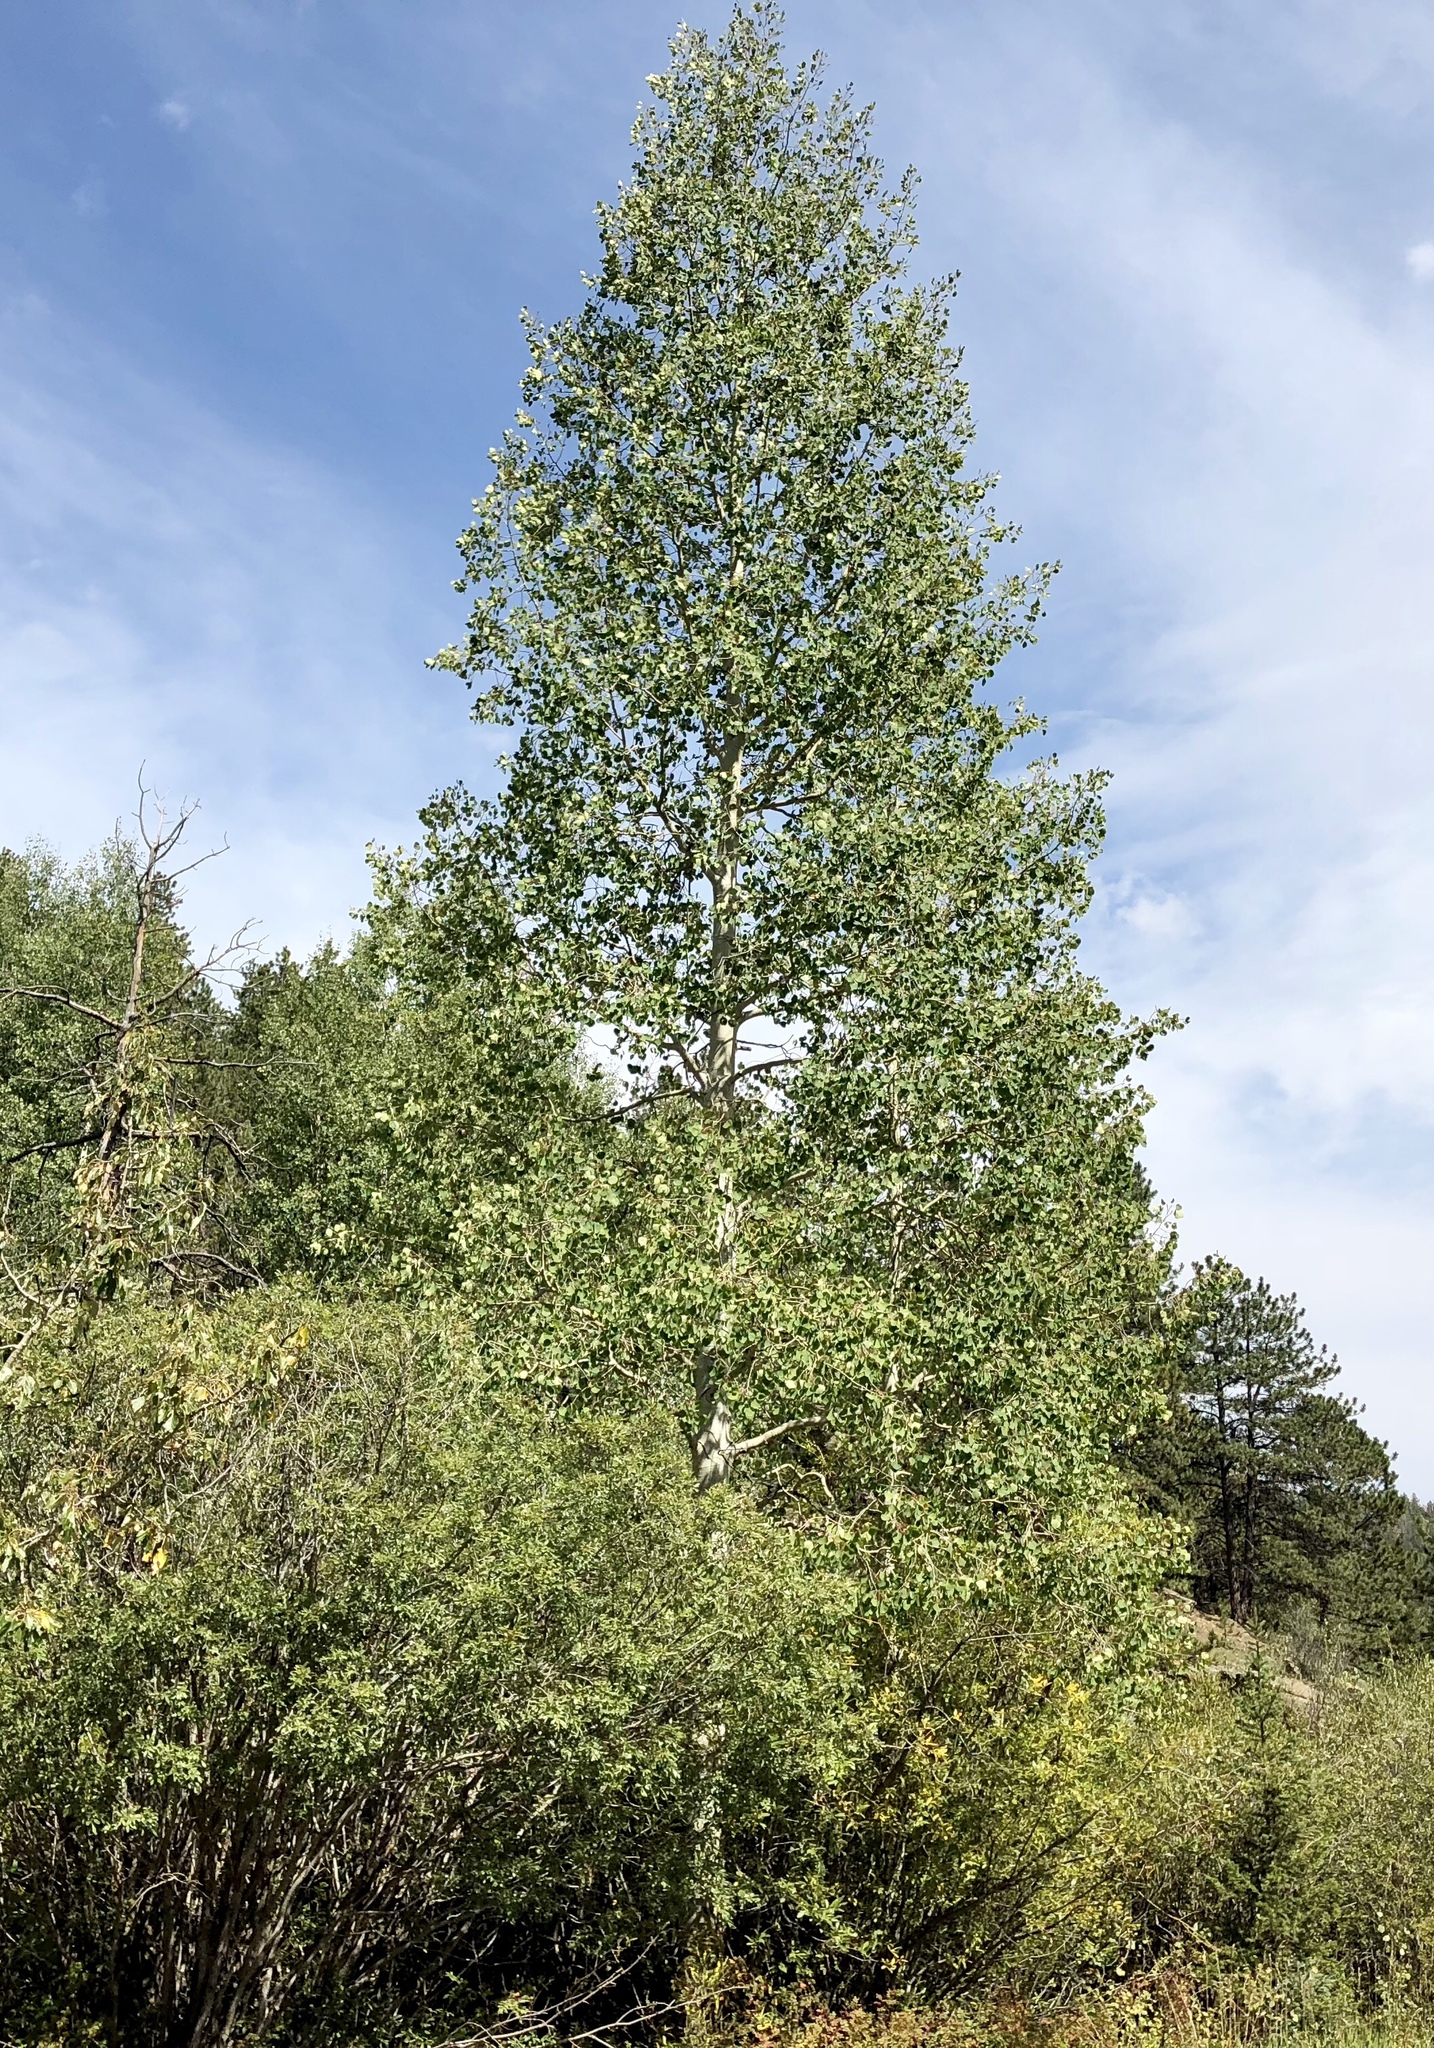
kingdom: Plantae
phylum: Tracheophyta
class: Magnoliopsida
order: Malpighiales
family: Salicaceae
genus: Populus
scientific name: Populus tremuloides
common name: Quaking aspen
